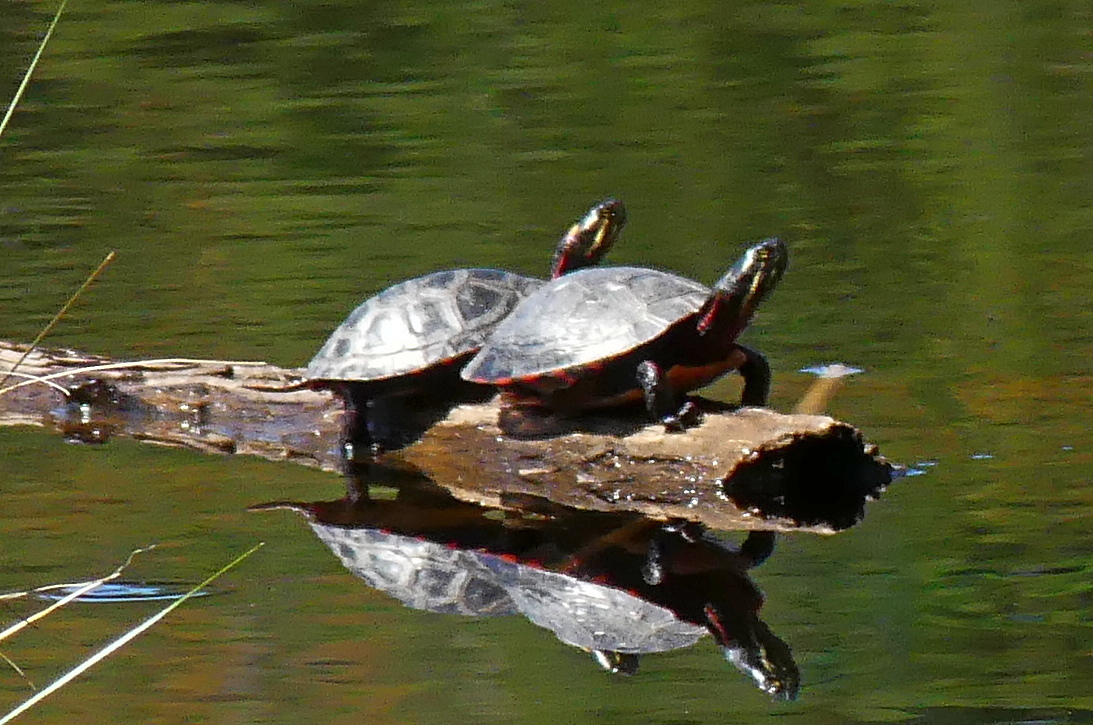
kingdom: Animalia
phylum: Chordata
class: Testudines
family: Emydidae
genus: Chrysemys
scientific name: Chrysemys picta
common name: Painted turtle
